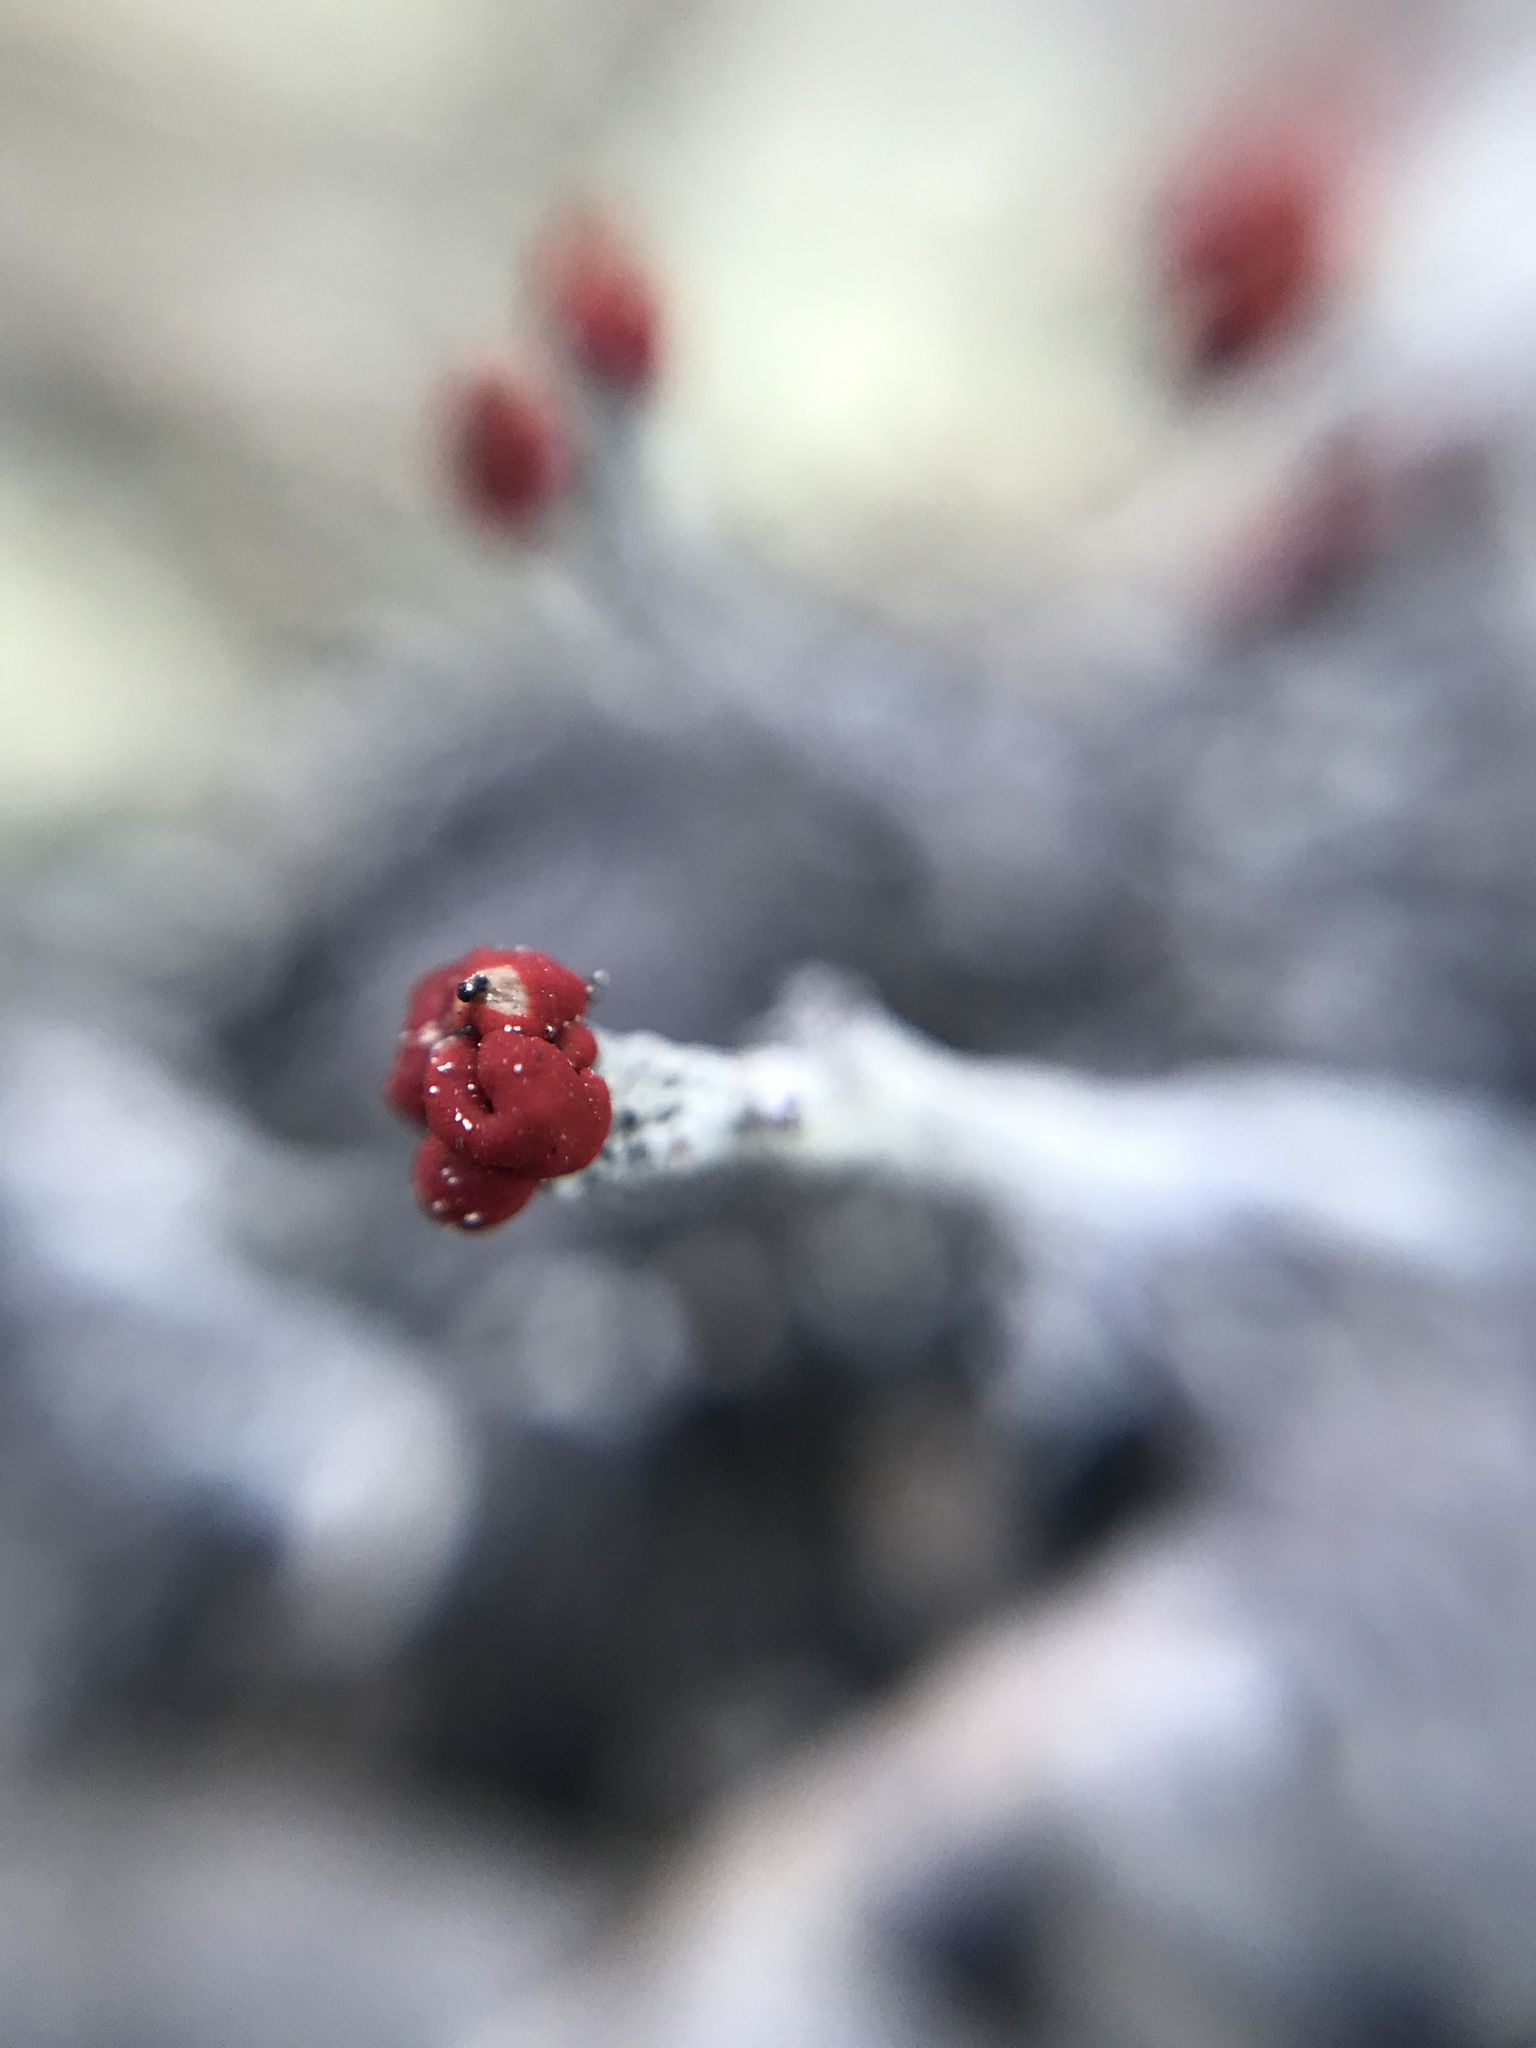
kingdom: Fungi
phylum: Ascomycota
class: Lecanoromycetes
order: Lecanorales
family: Cladoniaceae
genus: Cladonia
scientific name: Cladonia macilenta
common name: Lipstick powderhorn
